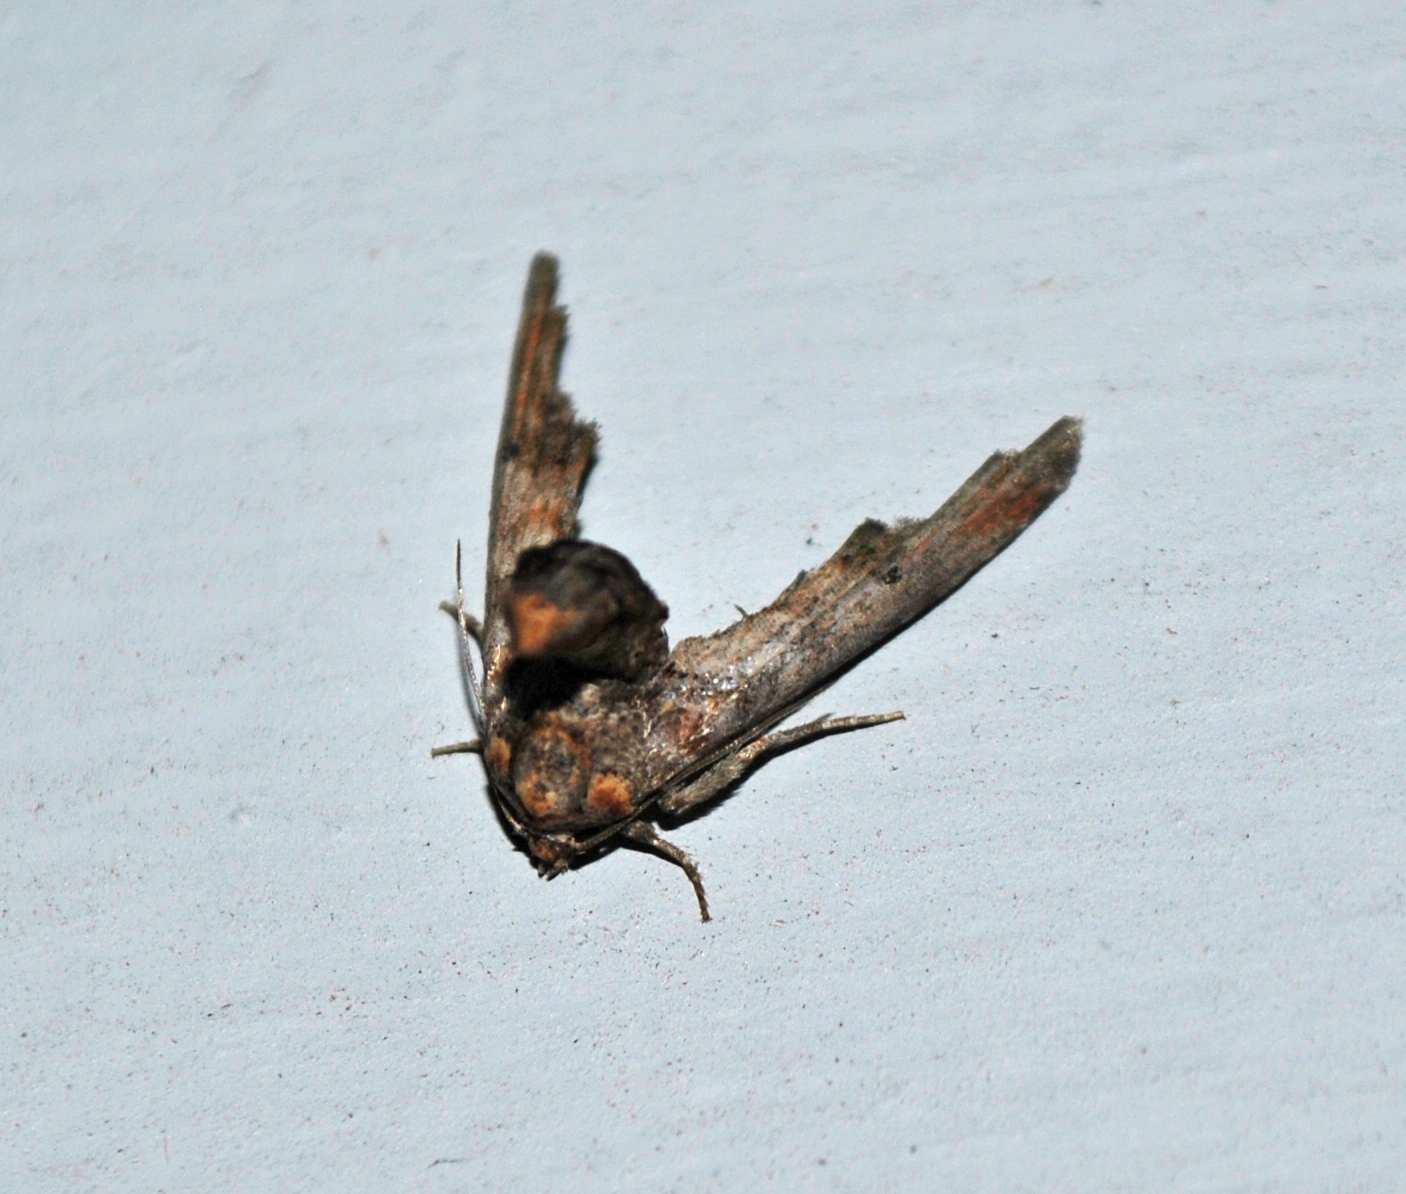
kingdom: Animalia
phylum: Arthropoda
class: Insecta
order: Lepidoptera
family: Euteliidae
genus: Marathyssa
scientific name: Marathyssa inficita
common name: Dark marathyssa moth
